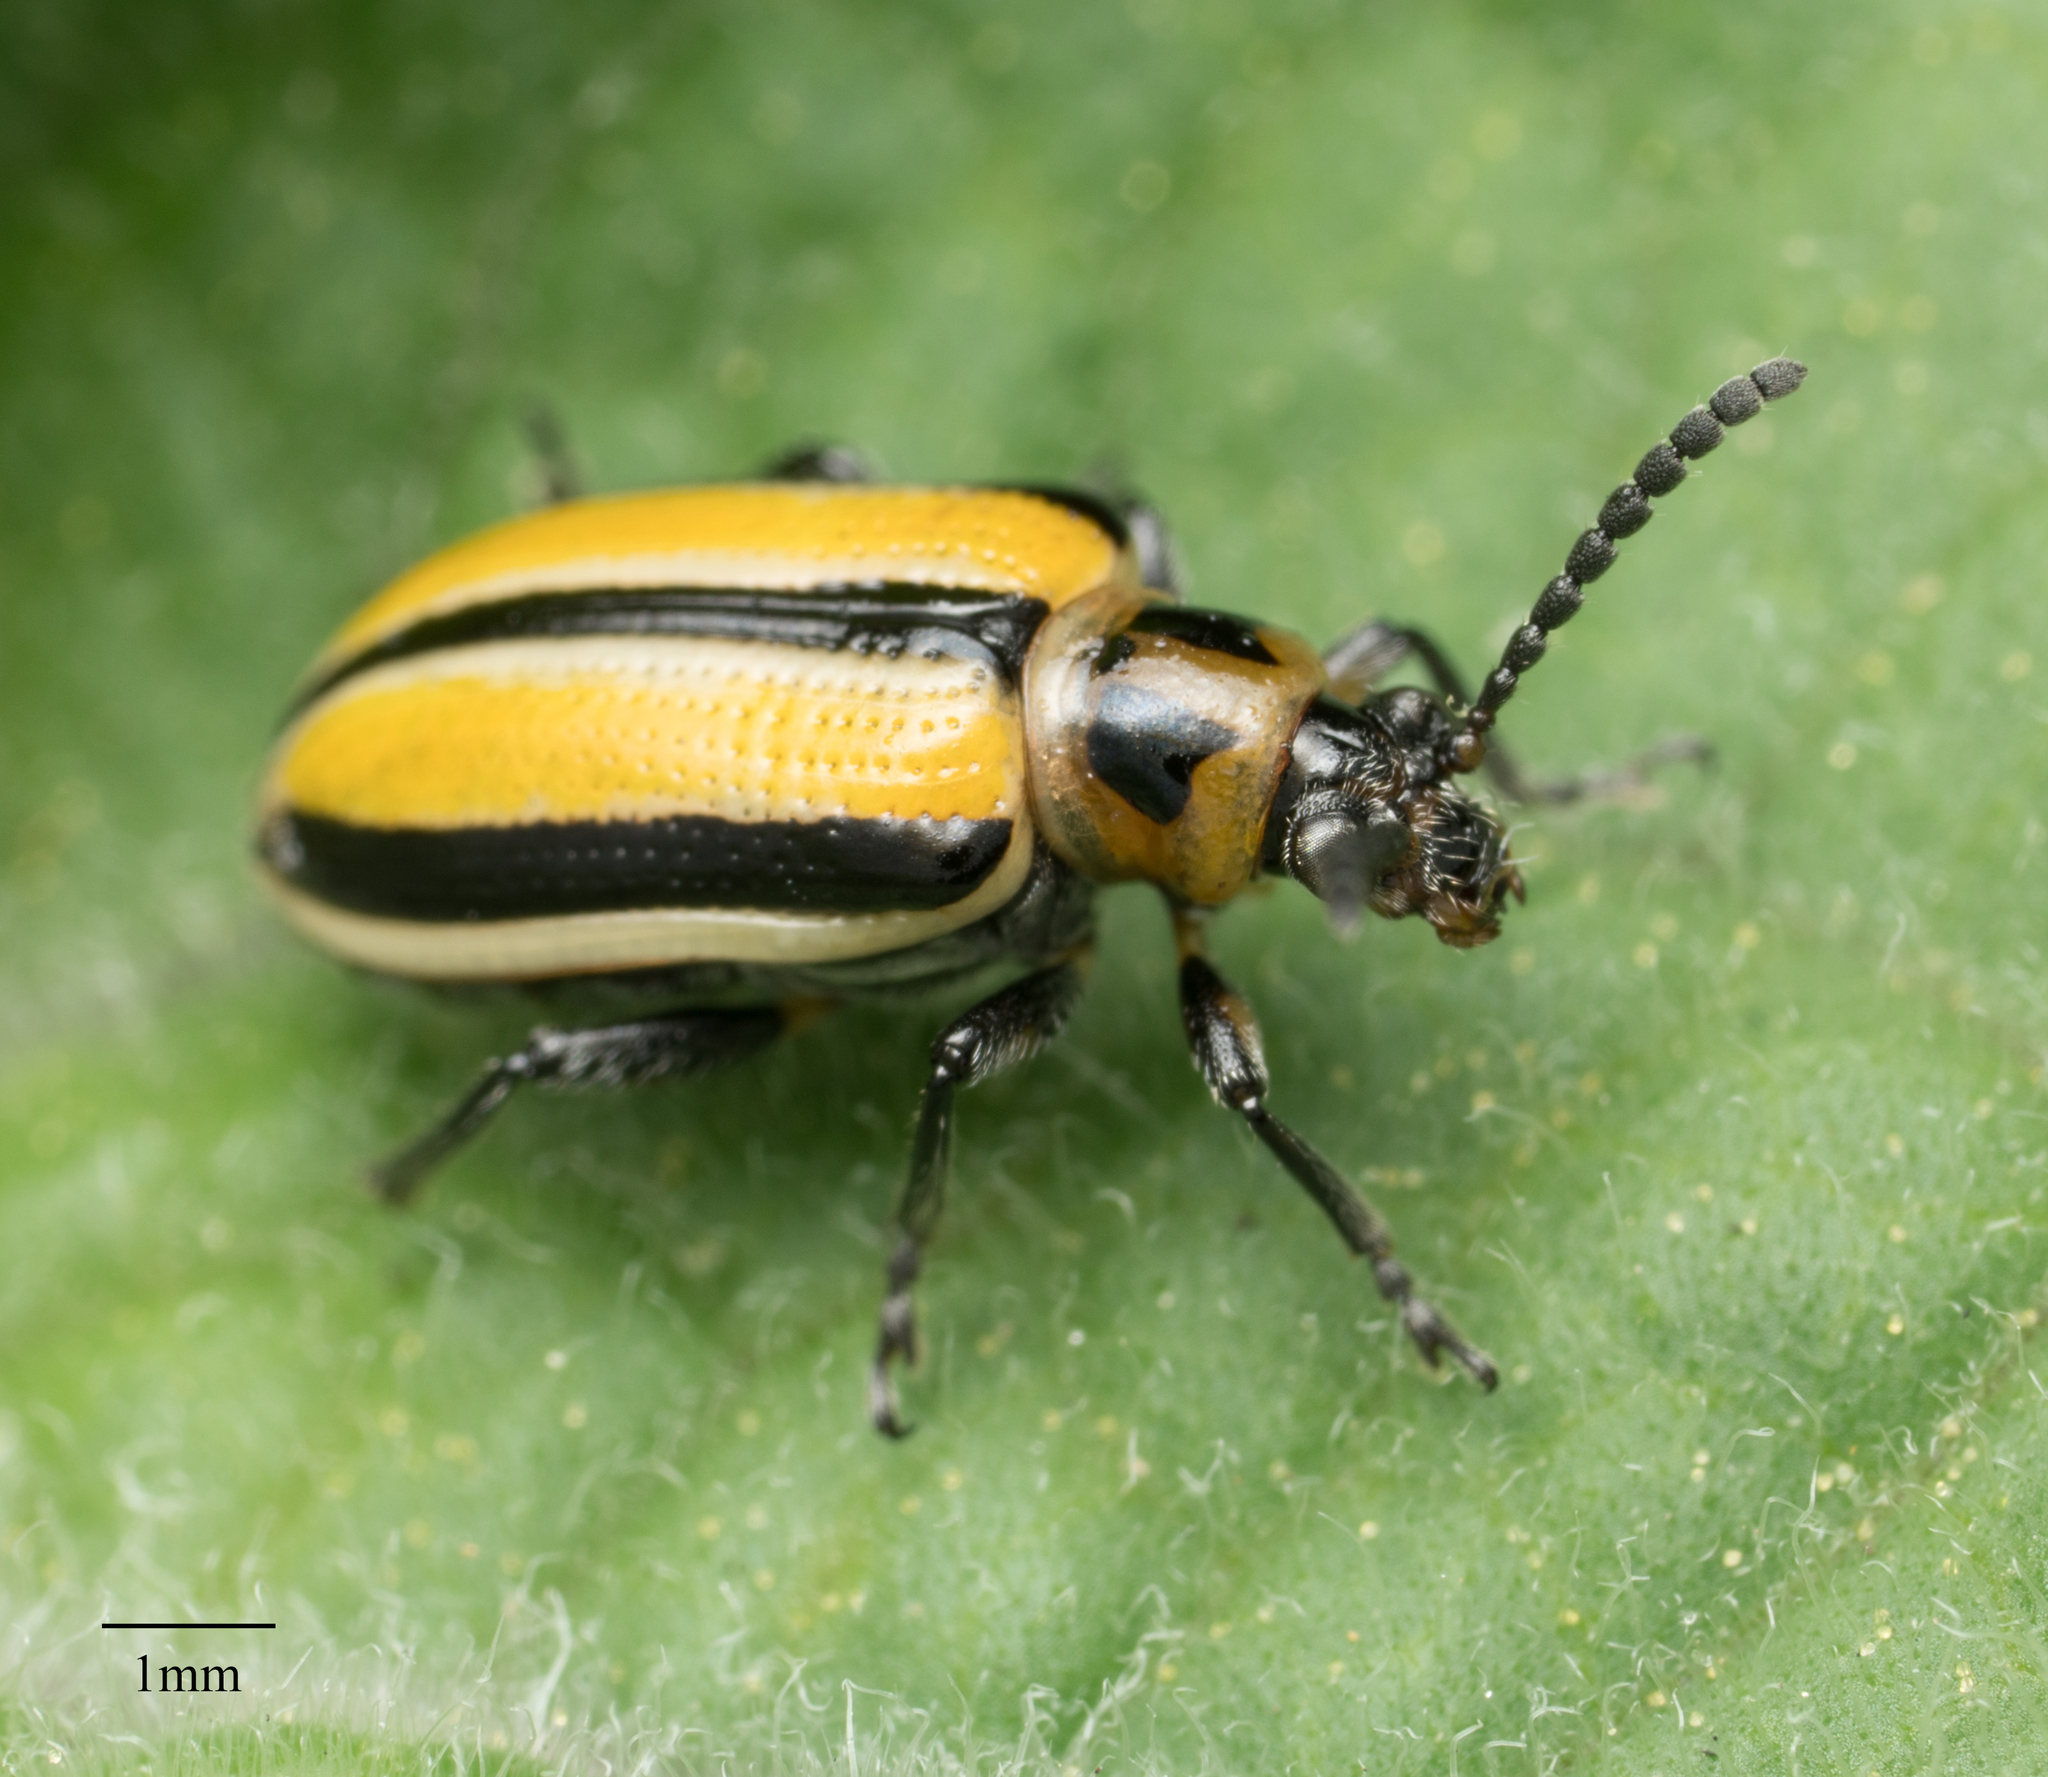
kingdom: Animalia
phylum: Arthropoda
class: Insecta
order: Coleoptera
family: Chrysomelidae
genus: Lema
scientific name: Lema daturaphila
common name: Leaf beetle
